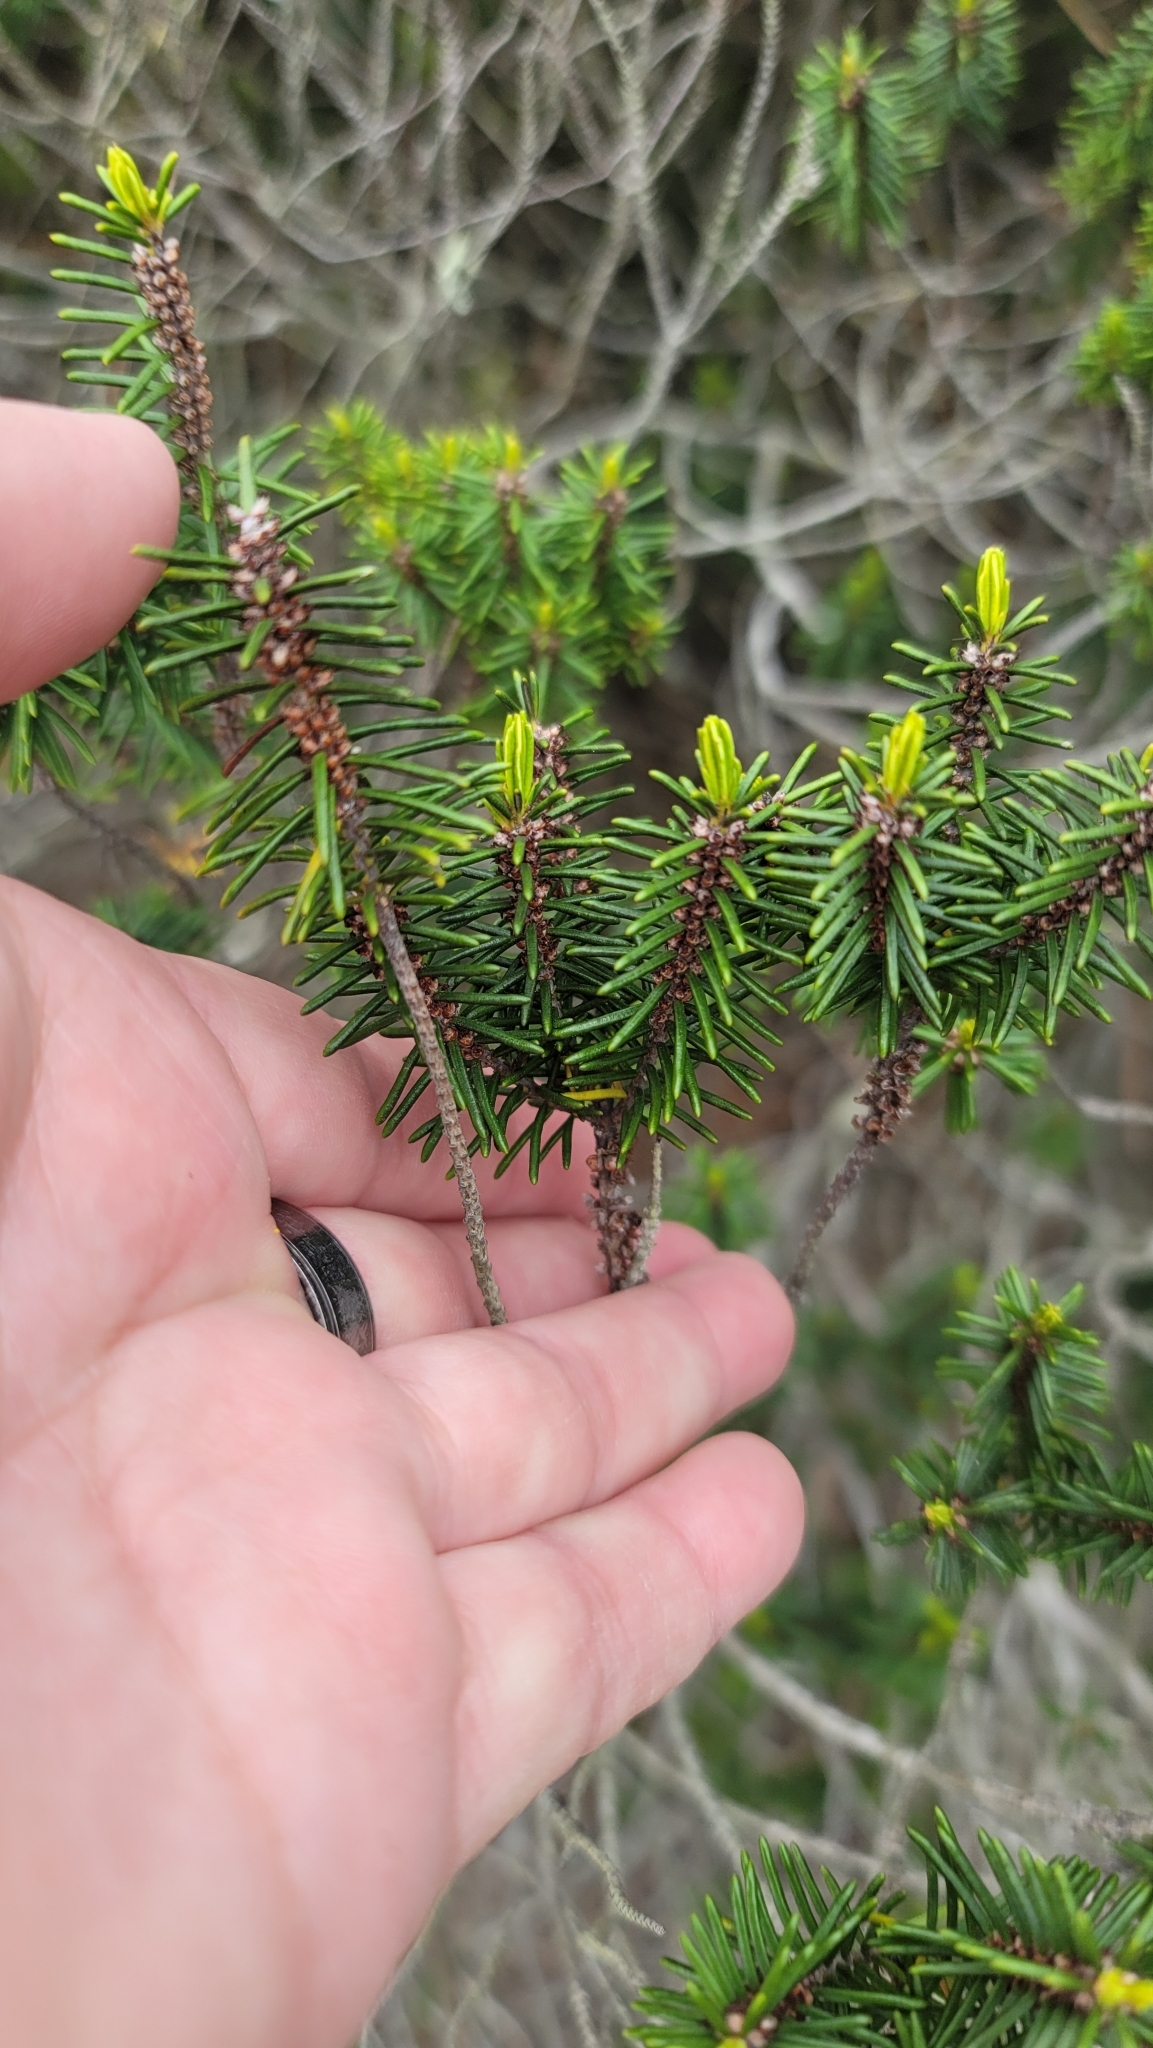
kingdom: Plantae
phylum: Tracheophyta
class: Magnoliopsida
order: Ericales
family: Ericaceae
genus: Ceratiola
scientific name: Ceratiola ericoides
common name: Sandhill-rosemary
